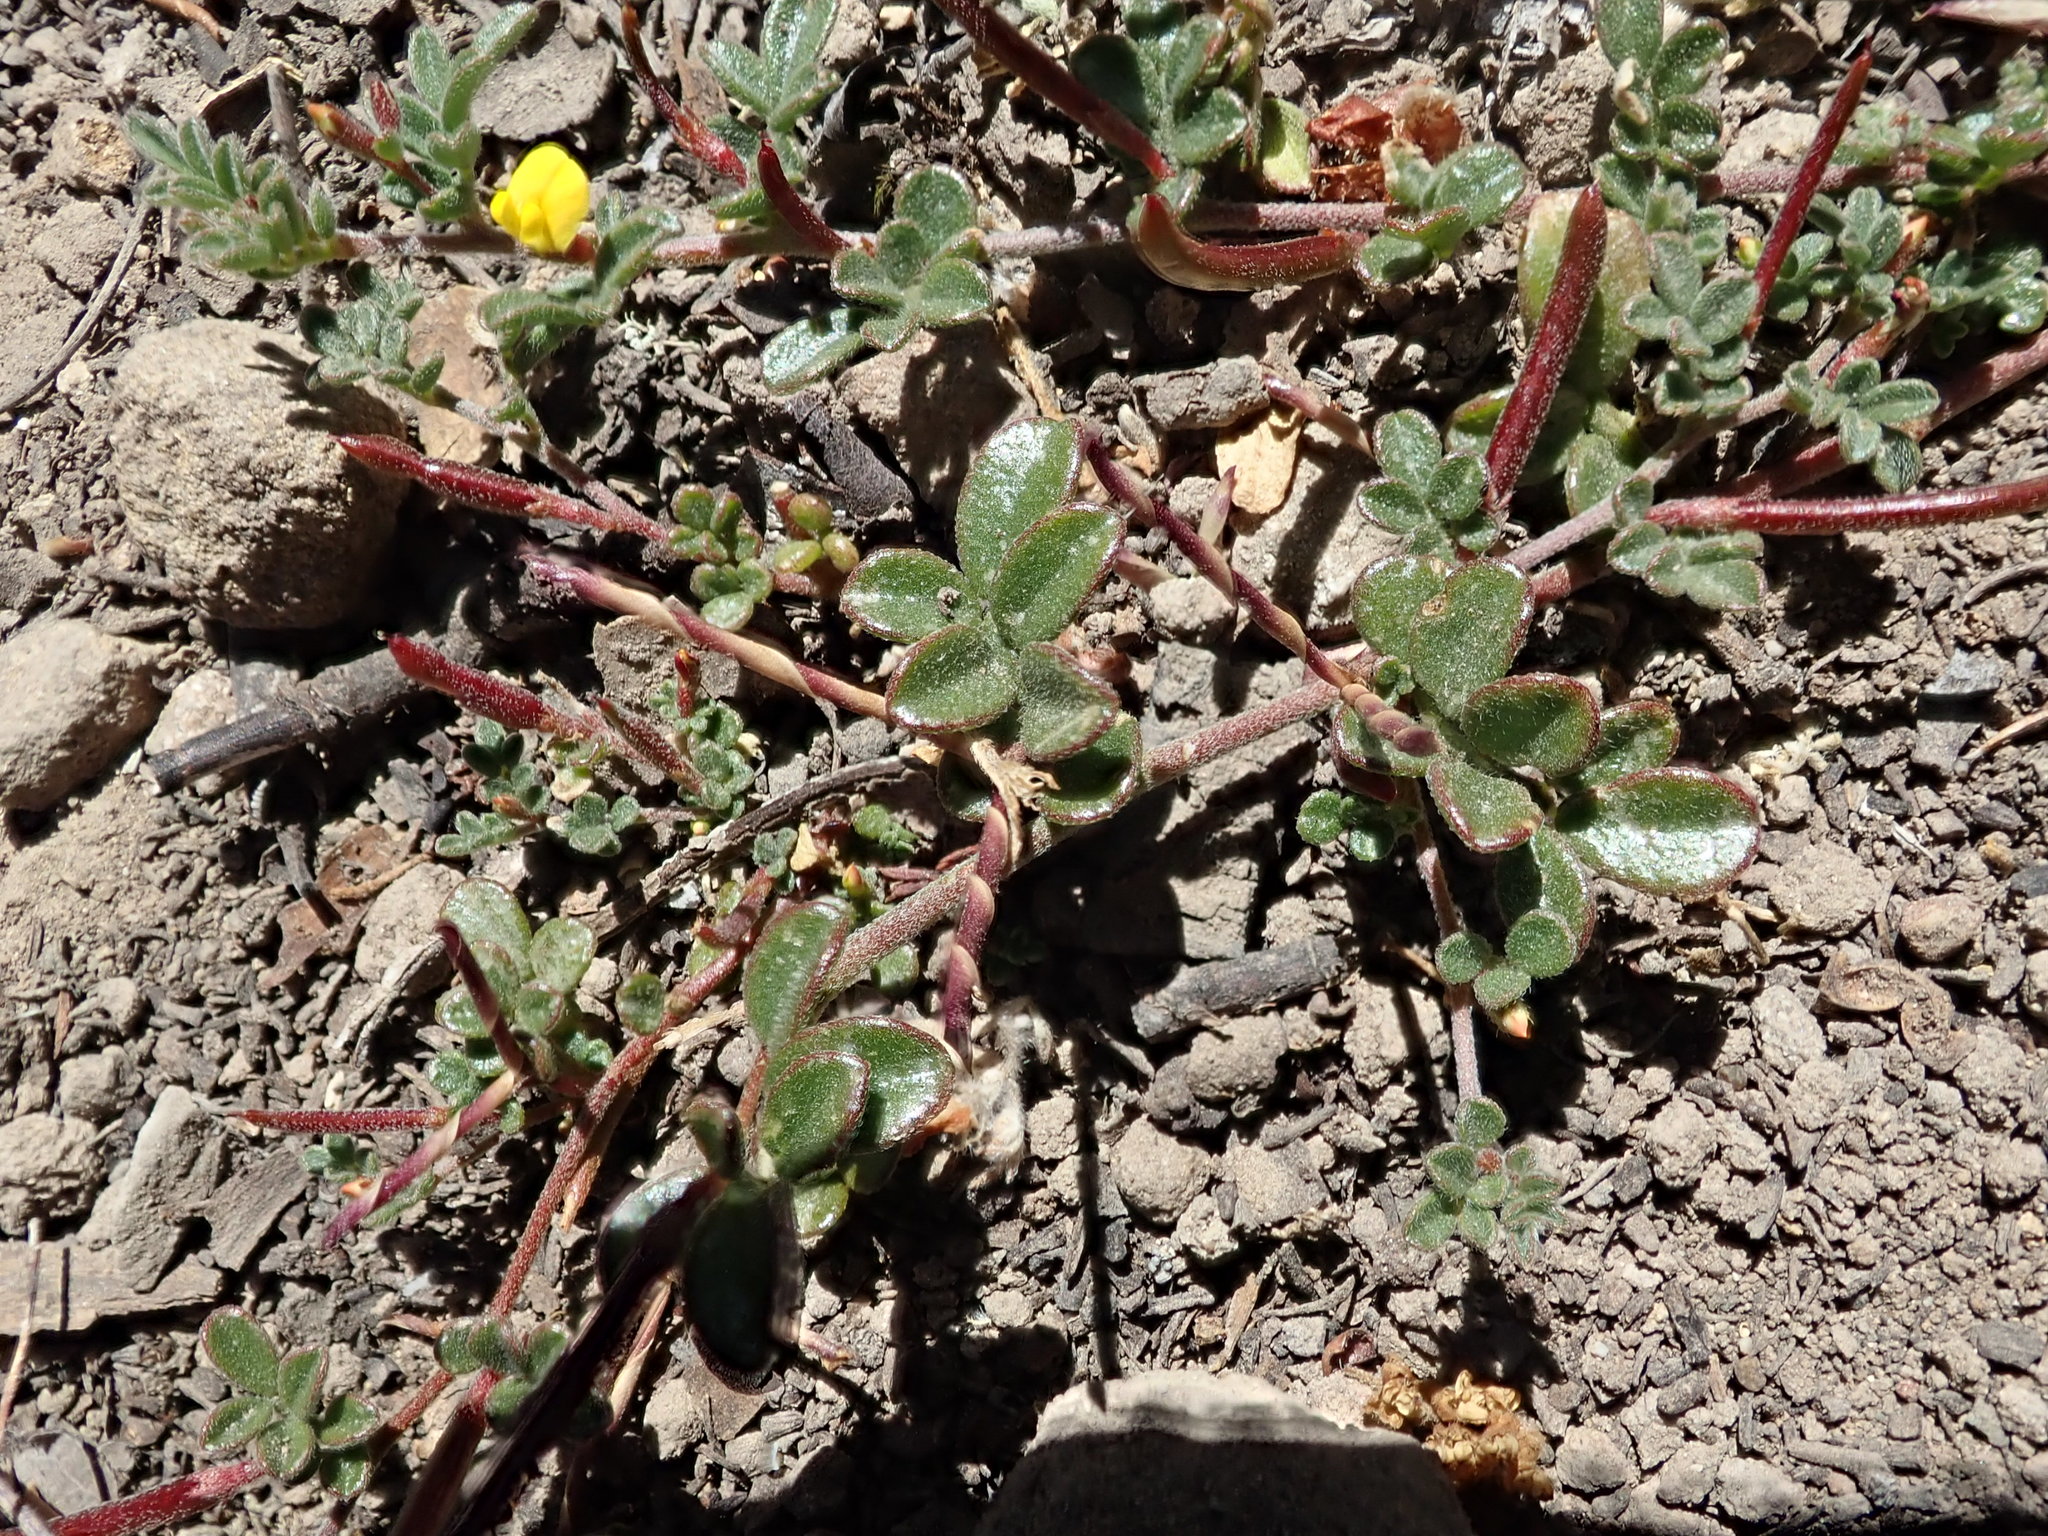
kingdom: Plantae
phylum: Tracheophyta
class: Magnoliopsida
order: Fabales
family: Fabaceae
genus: Acmispon
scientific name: Acmispon strigosus
